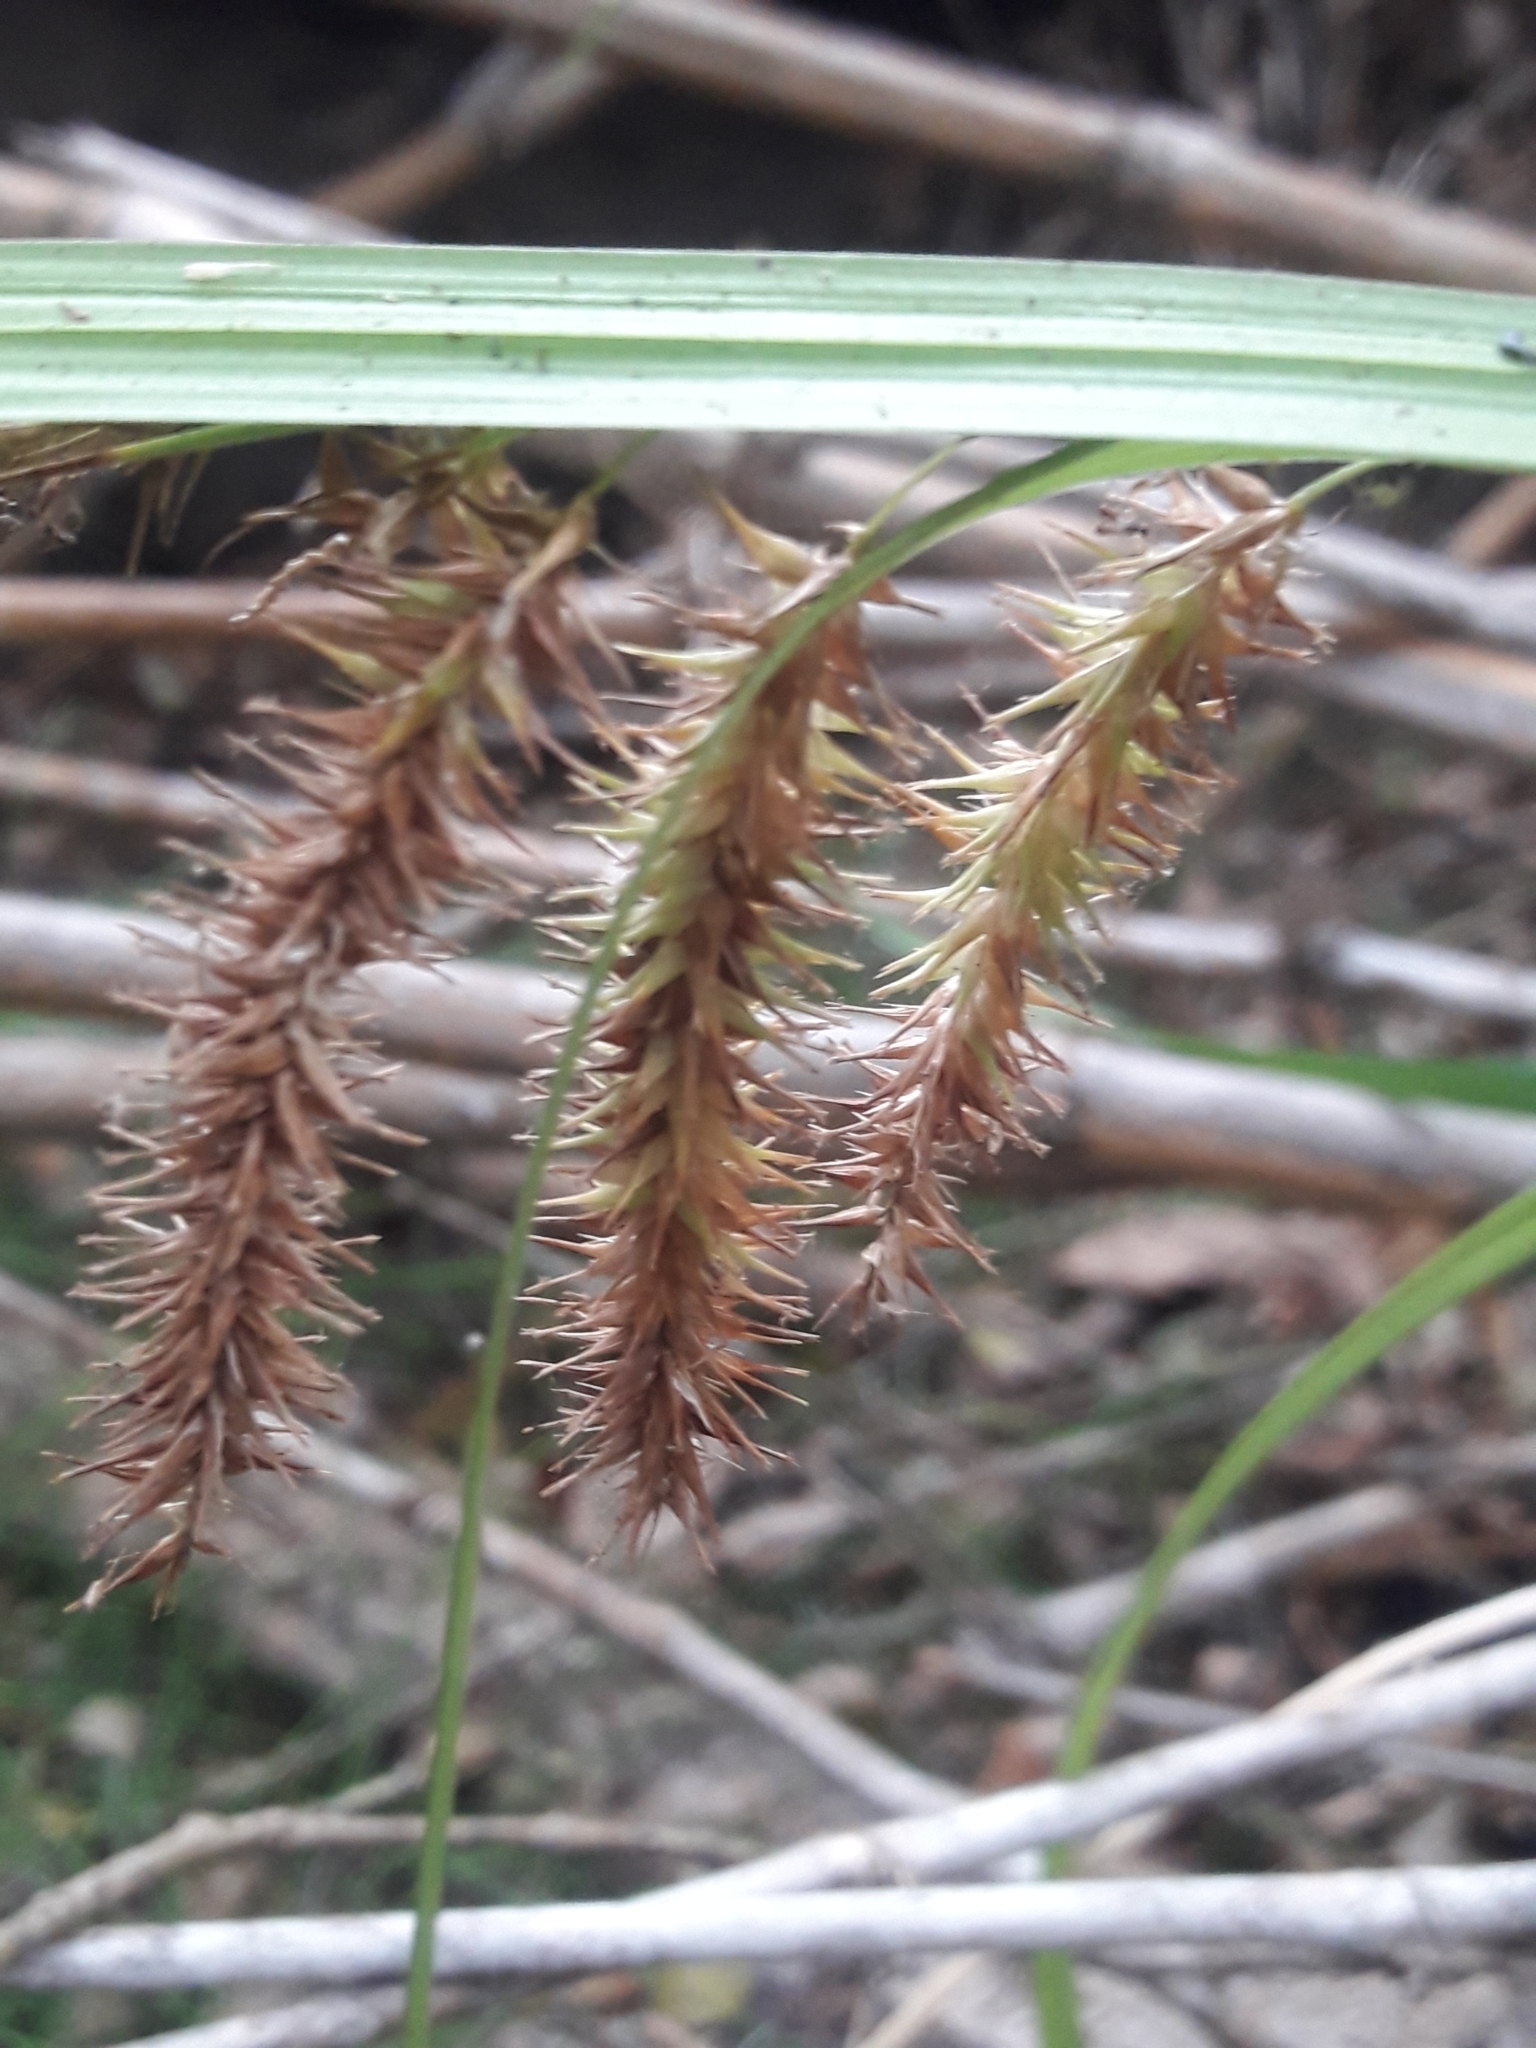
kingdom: Plantae
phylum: Tracheophyta
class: Liliopsida
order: Poales
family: Cyperaceae
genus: Carex
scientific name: Carex excelsa
